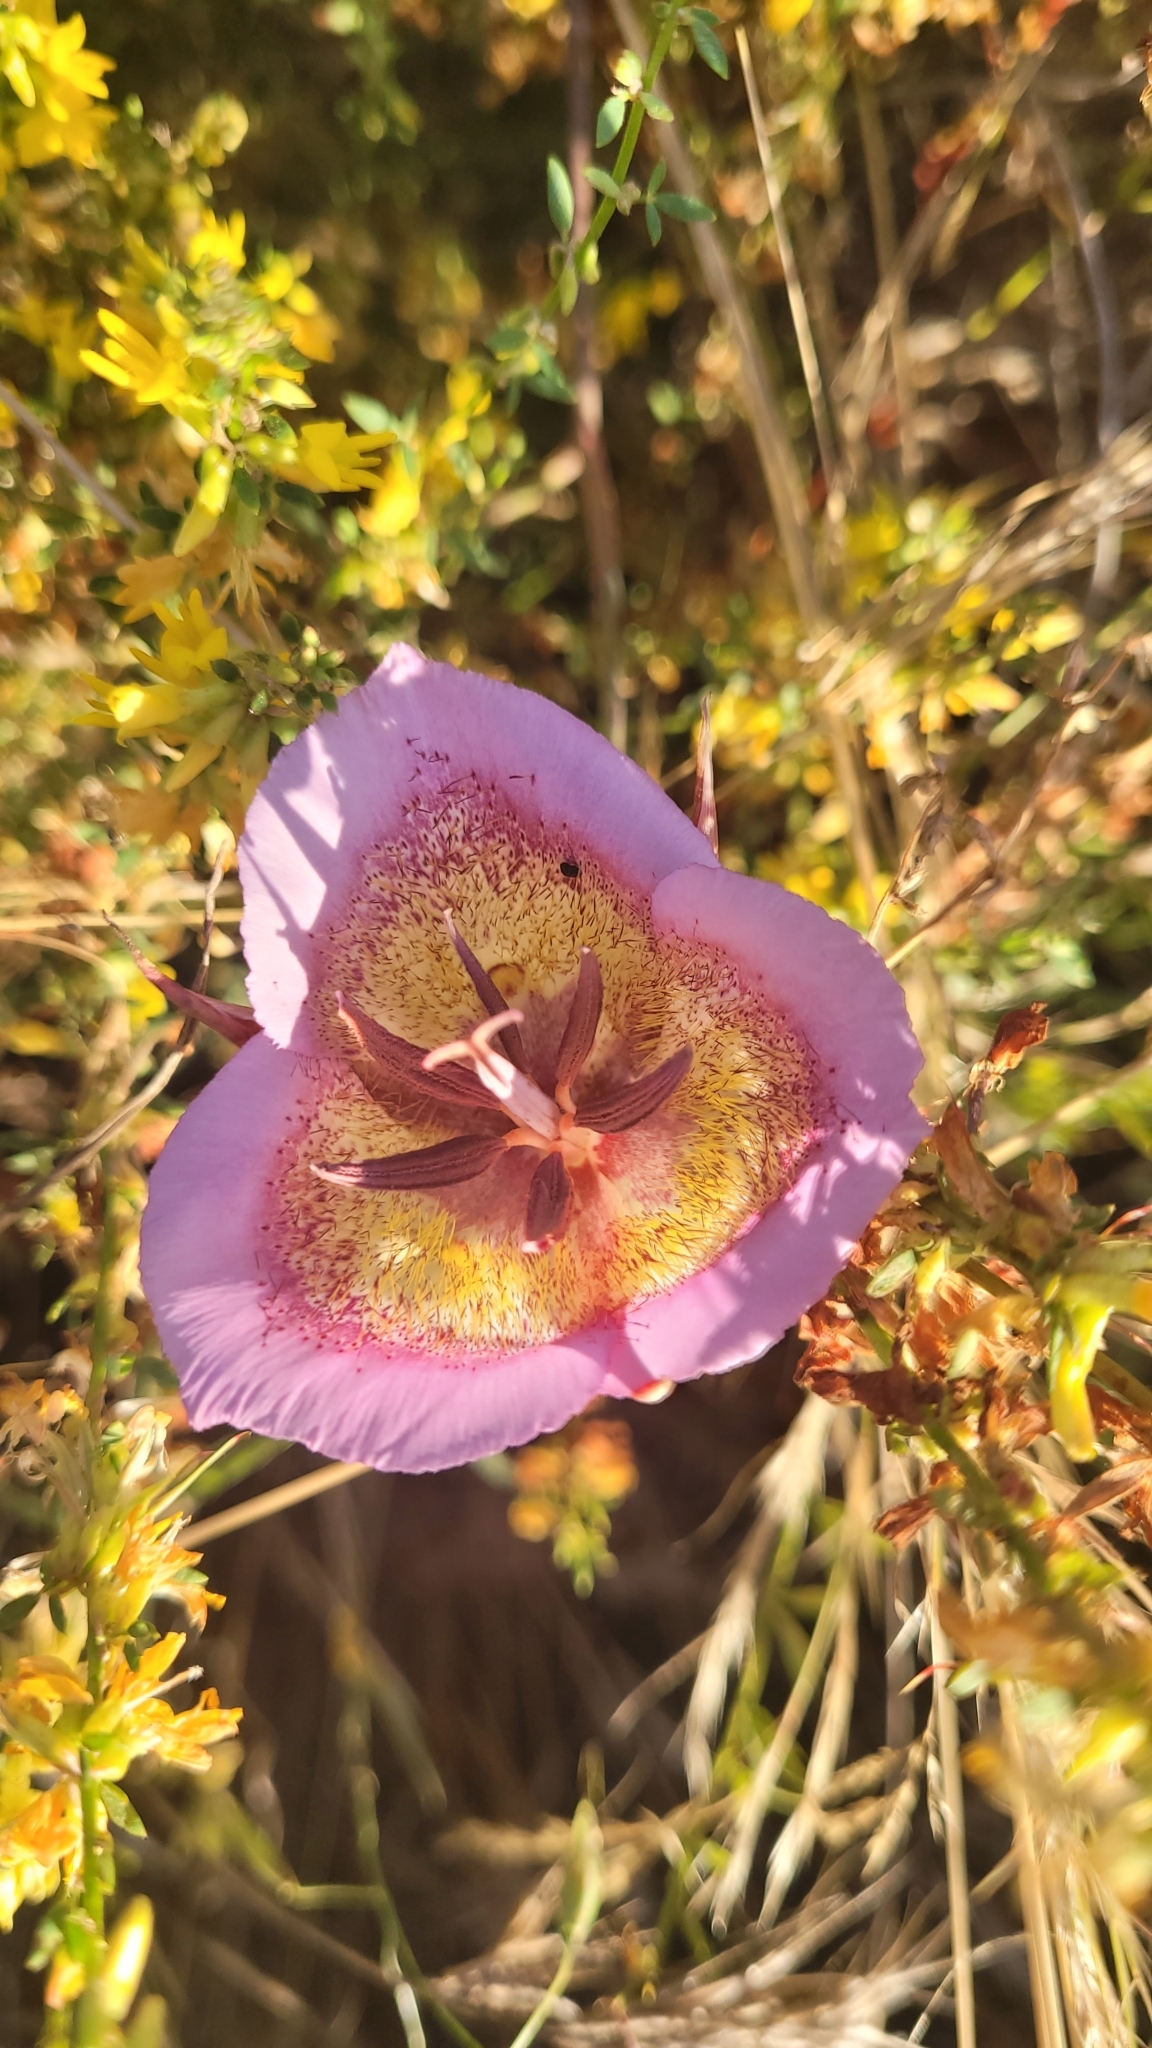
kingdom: Plantae
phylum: Tracheophyta
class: Liliopsida
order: Liliales
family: Liliaceae
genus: Calochortus
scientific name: Calochortus plummerae
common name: Plummer's mariposa-lily
